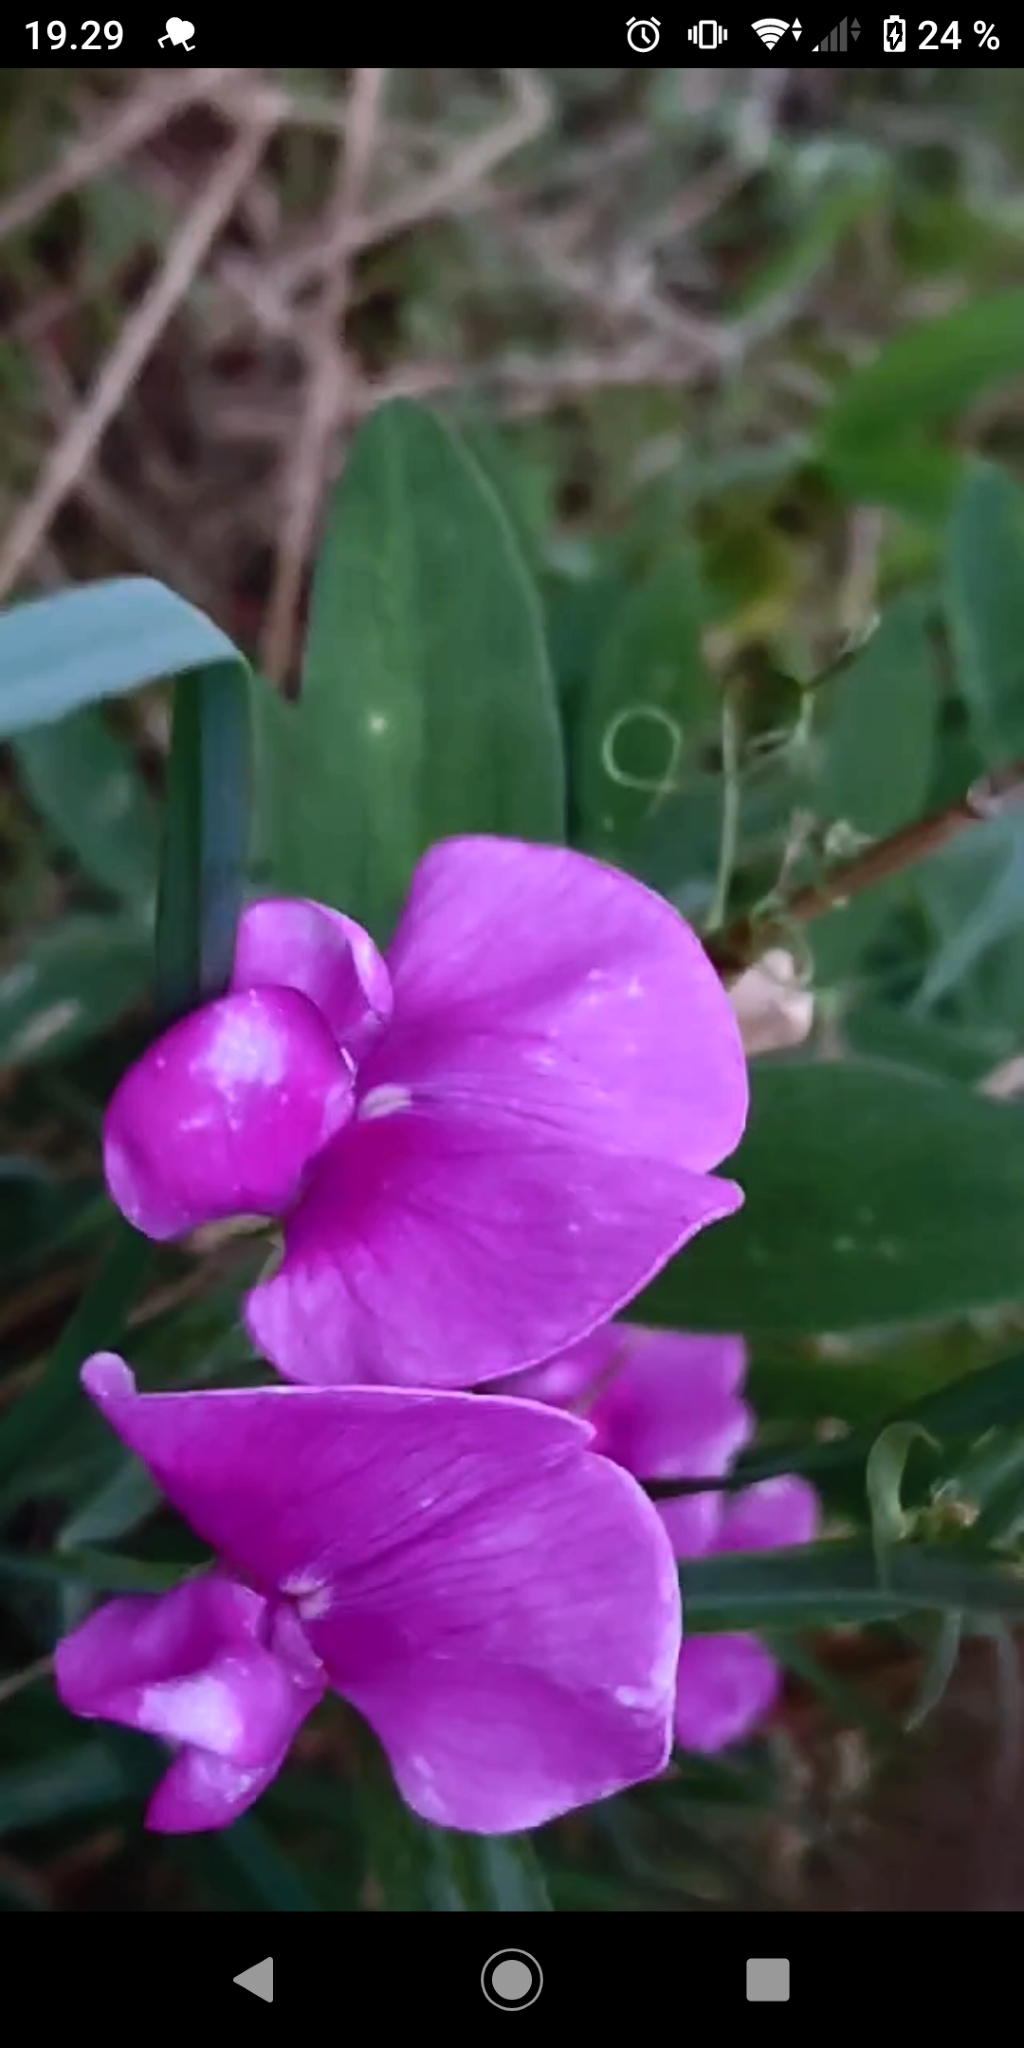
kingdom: Plantae
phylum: Tracheophyta
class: Magnoliopsida
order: Fabales
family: Fabaceae
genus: Lathyrus
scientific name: Lathyrus latifolius
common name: Perennial pea
